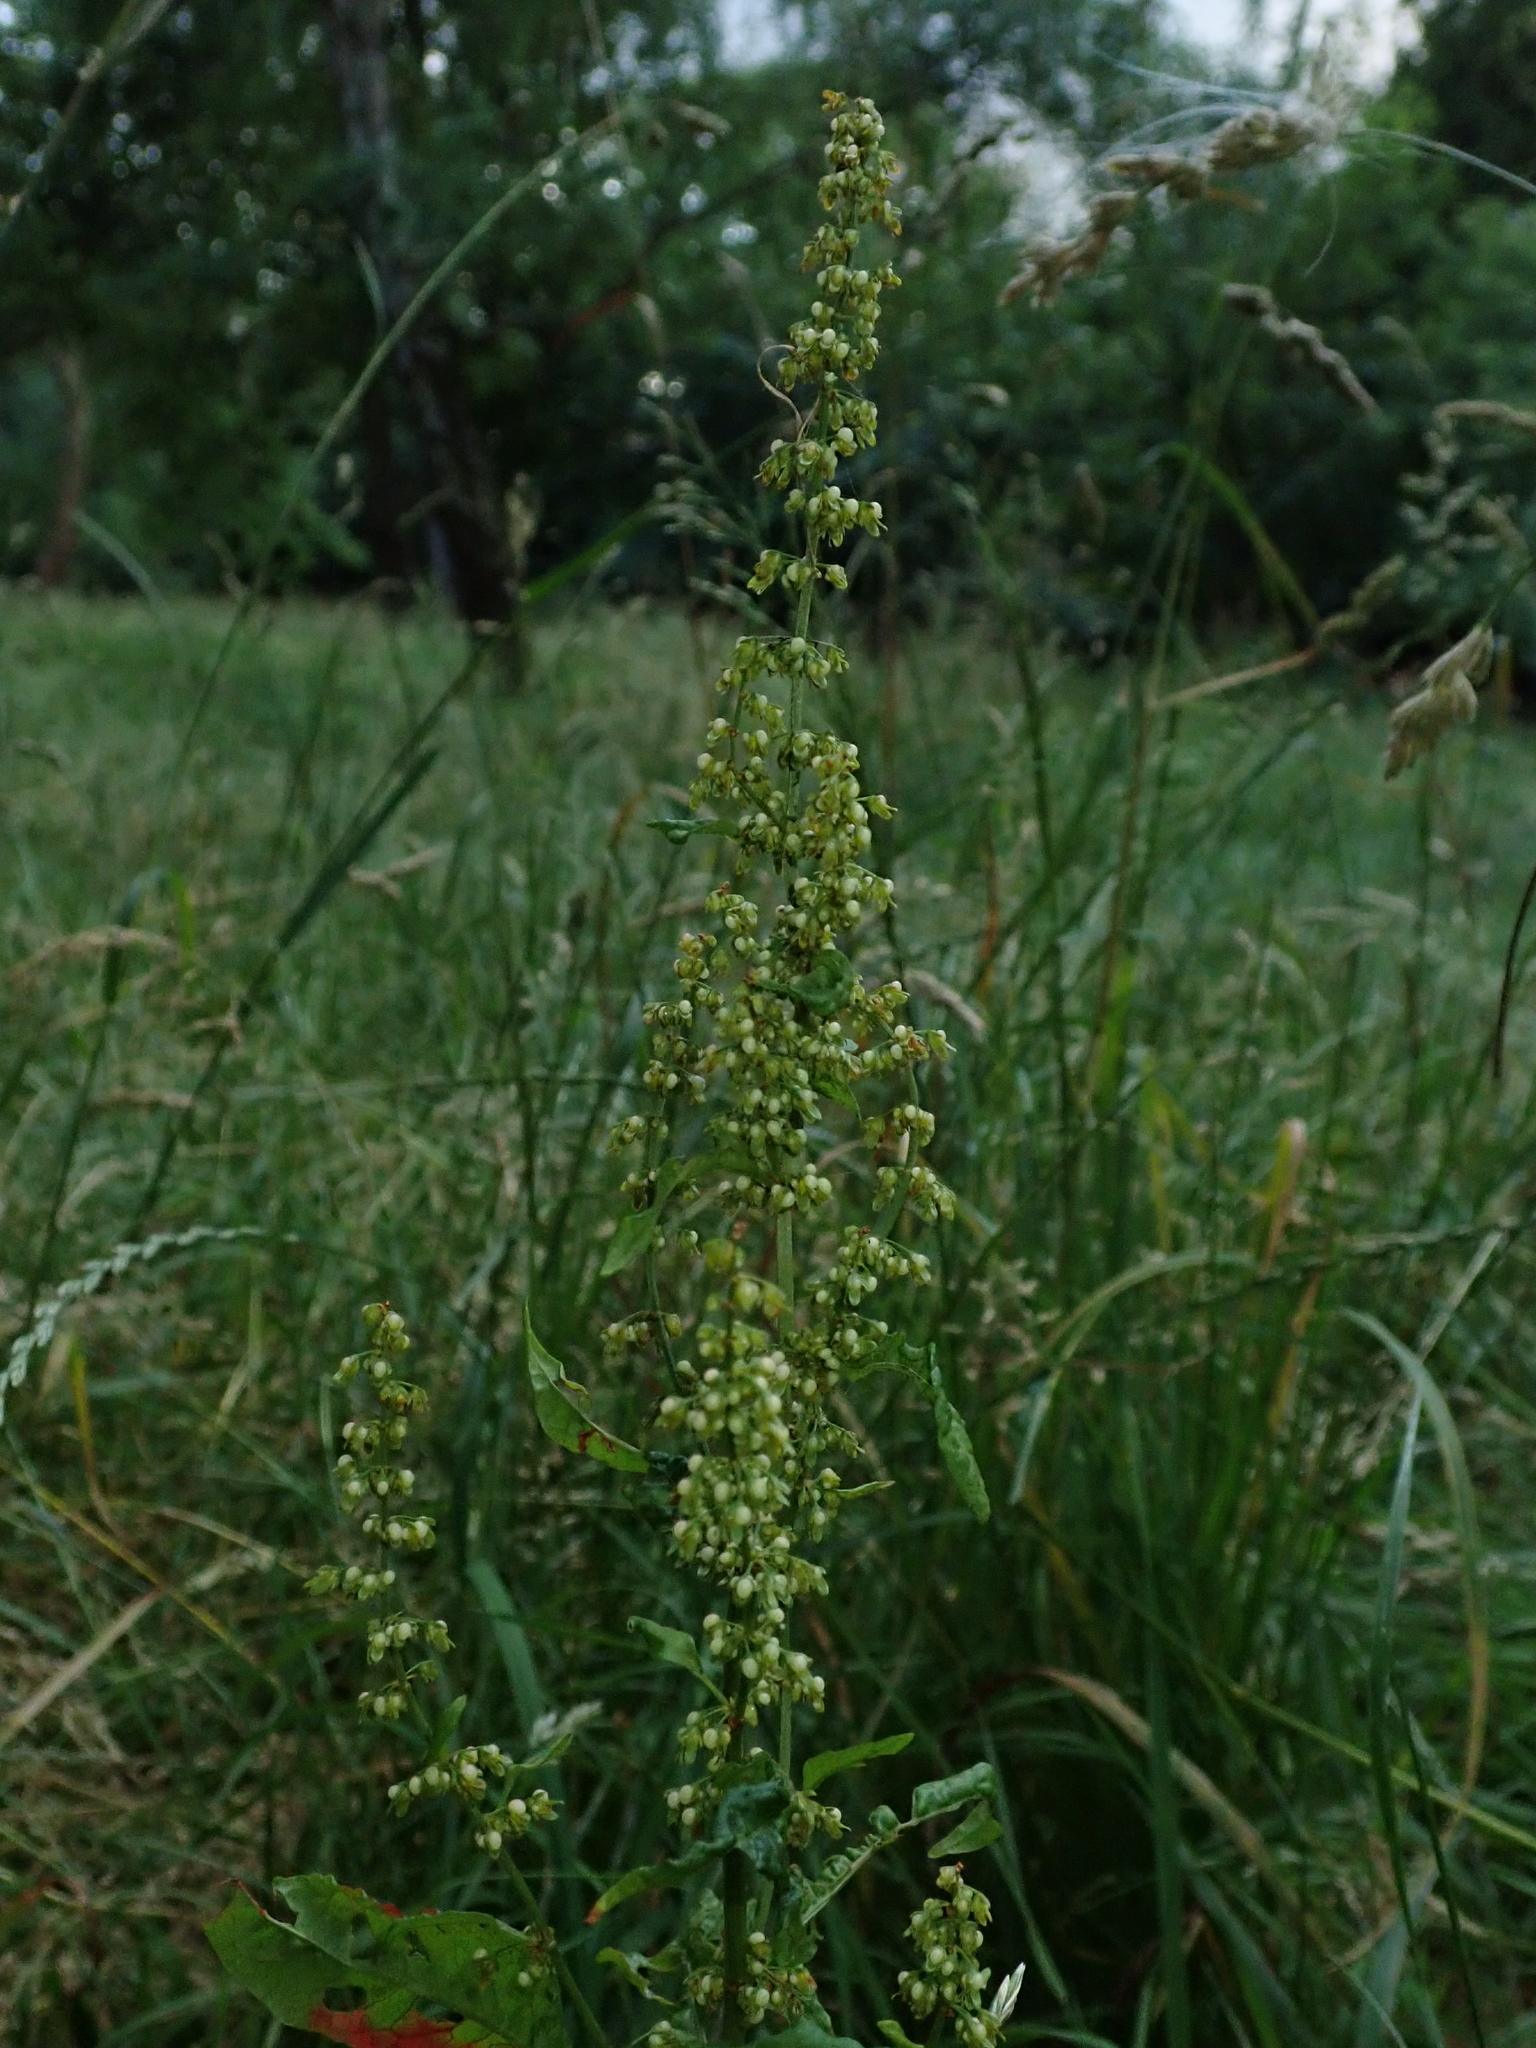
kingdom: Plantae
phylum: Tracheophyta
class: Magnoliopsida
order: Caryophyllales
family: Polygonaceae
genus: Rumex
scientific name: Rumex sanguineus
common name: Wood dock
